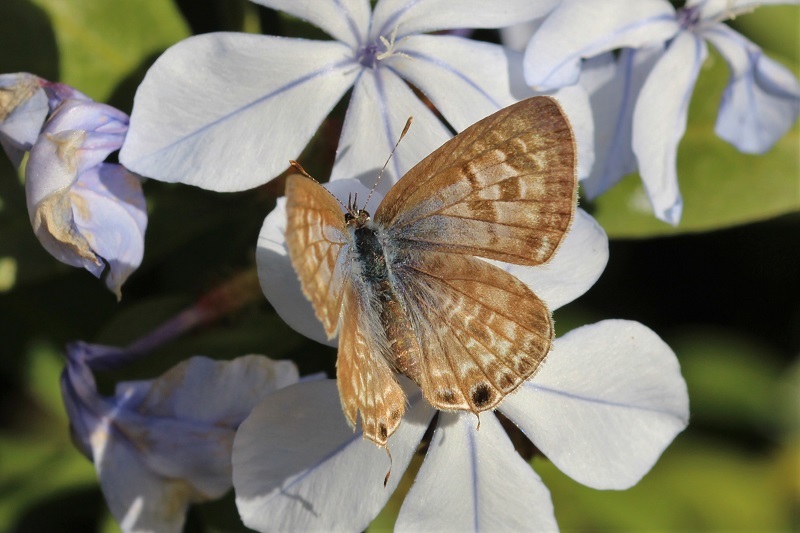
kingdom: Animalia
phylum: Arthropoda
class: Insecta
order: Lepidoptera
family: Lycaenidae
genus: Leptotes
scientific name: Leptotes
